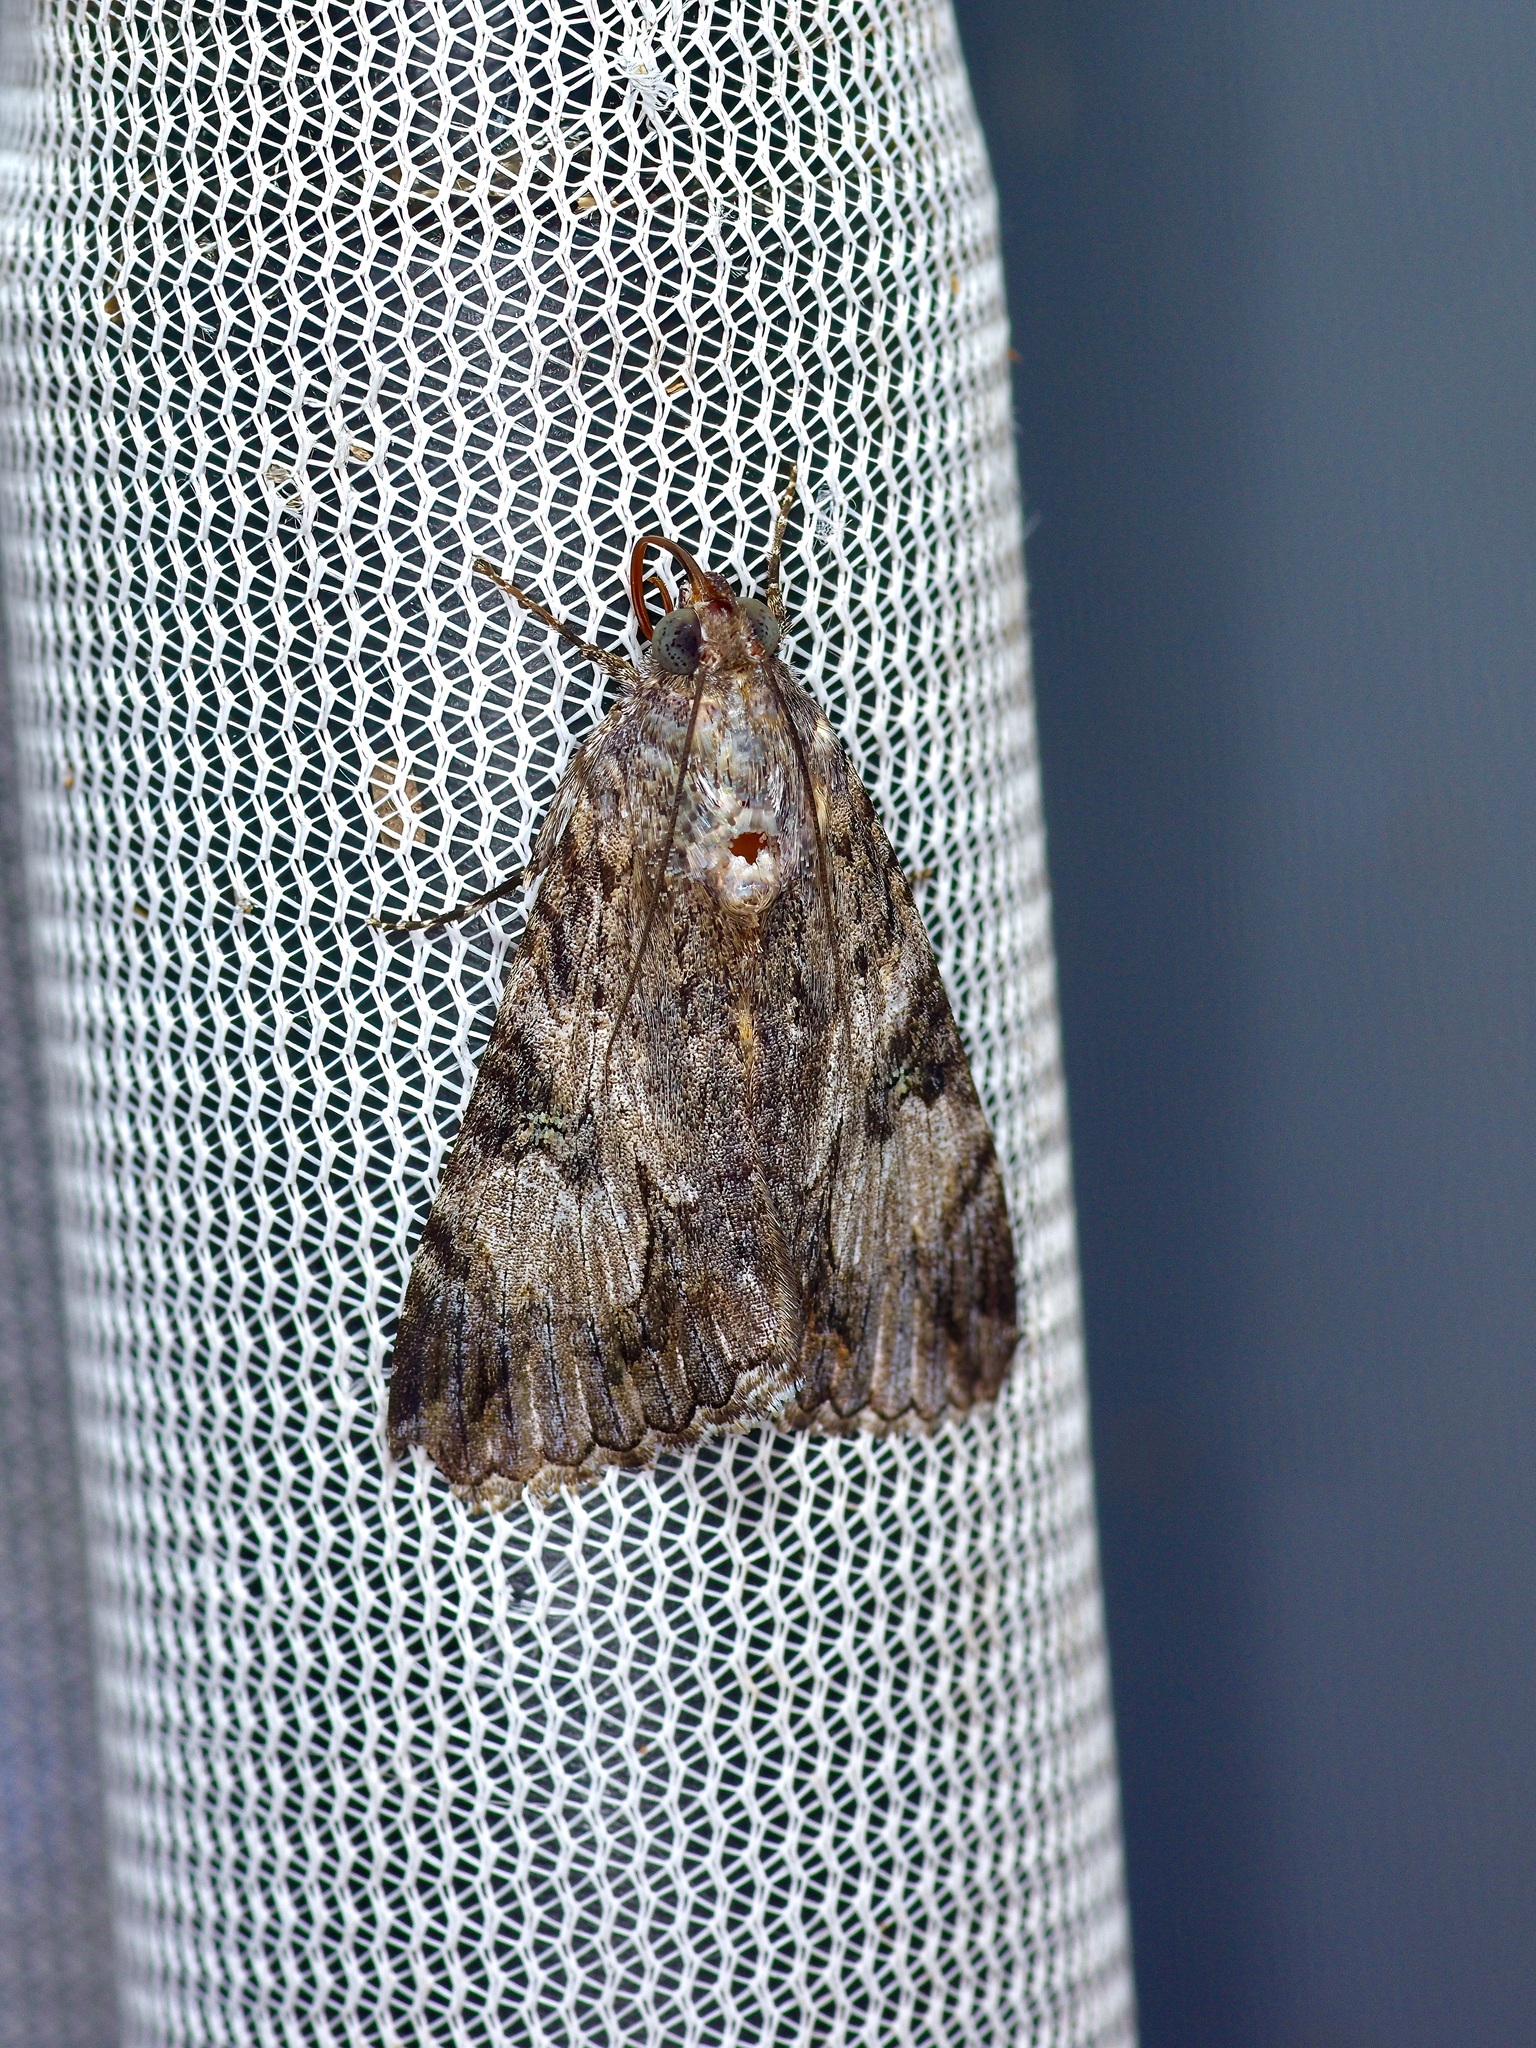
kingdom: Animalia
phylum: Arthropoda
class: Insecta
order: Lepidoptera
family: Erebidae
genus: Melipotis
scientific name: Melipotis jucunda
